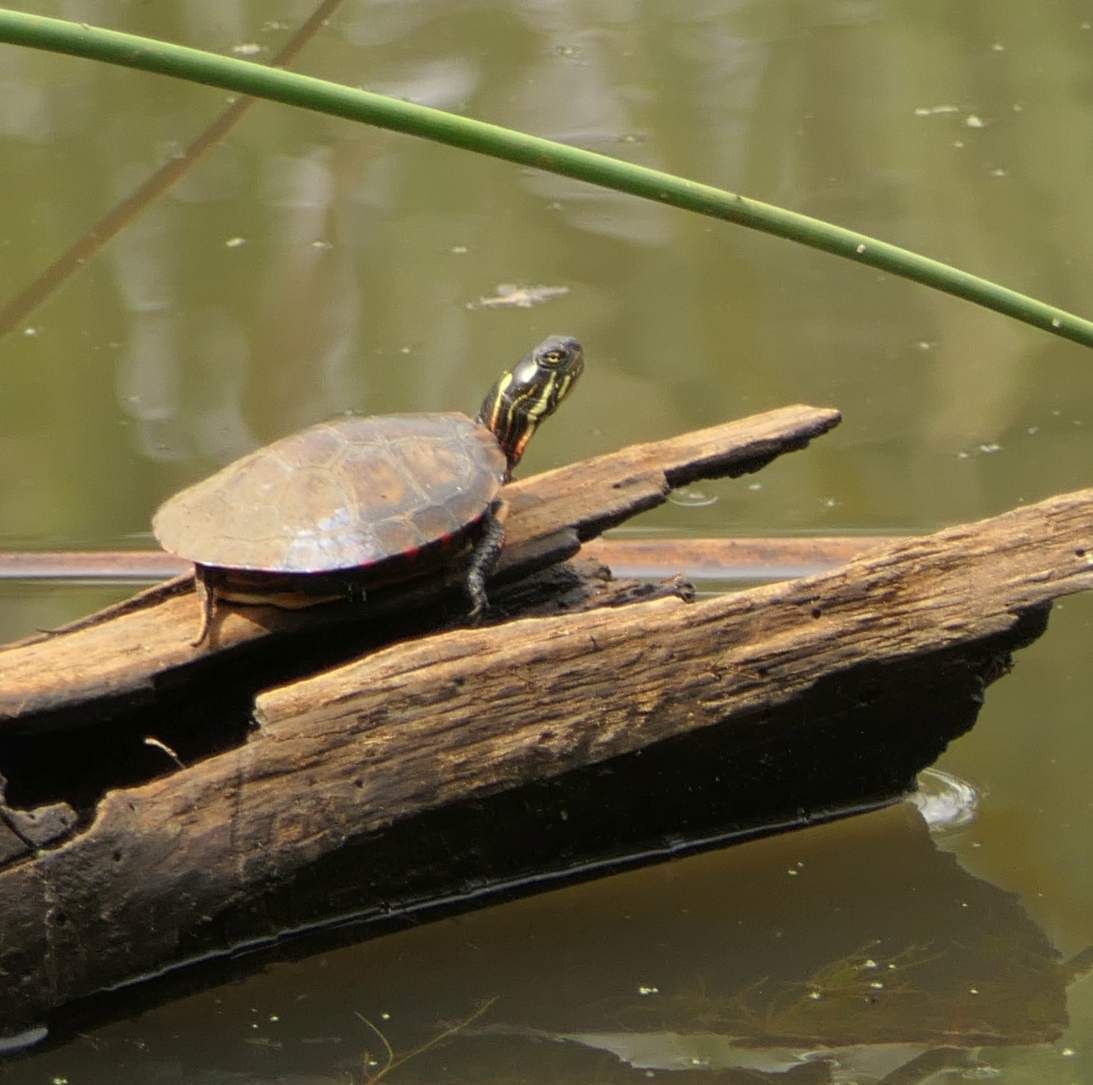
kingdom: Animalia
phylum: Chordata
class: Testudines
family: Emydidae
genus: Chrysemys
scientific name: Chrysemys picta
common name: Painted turtle
